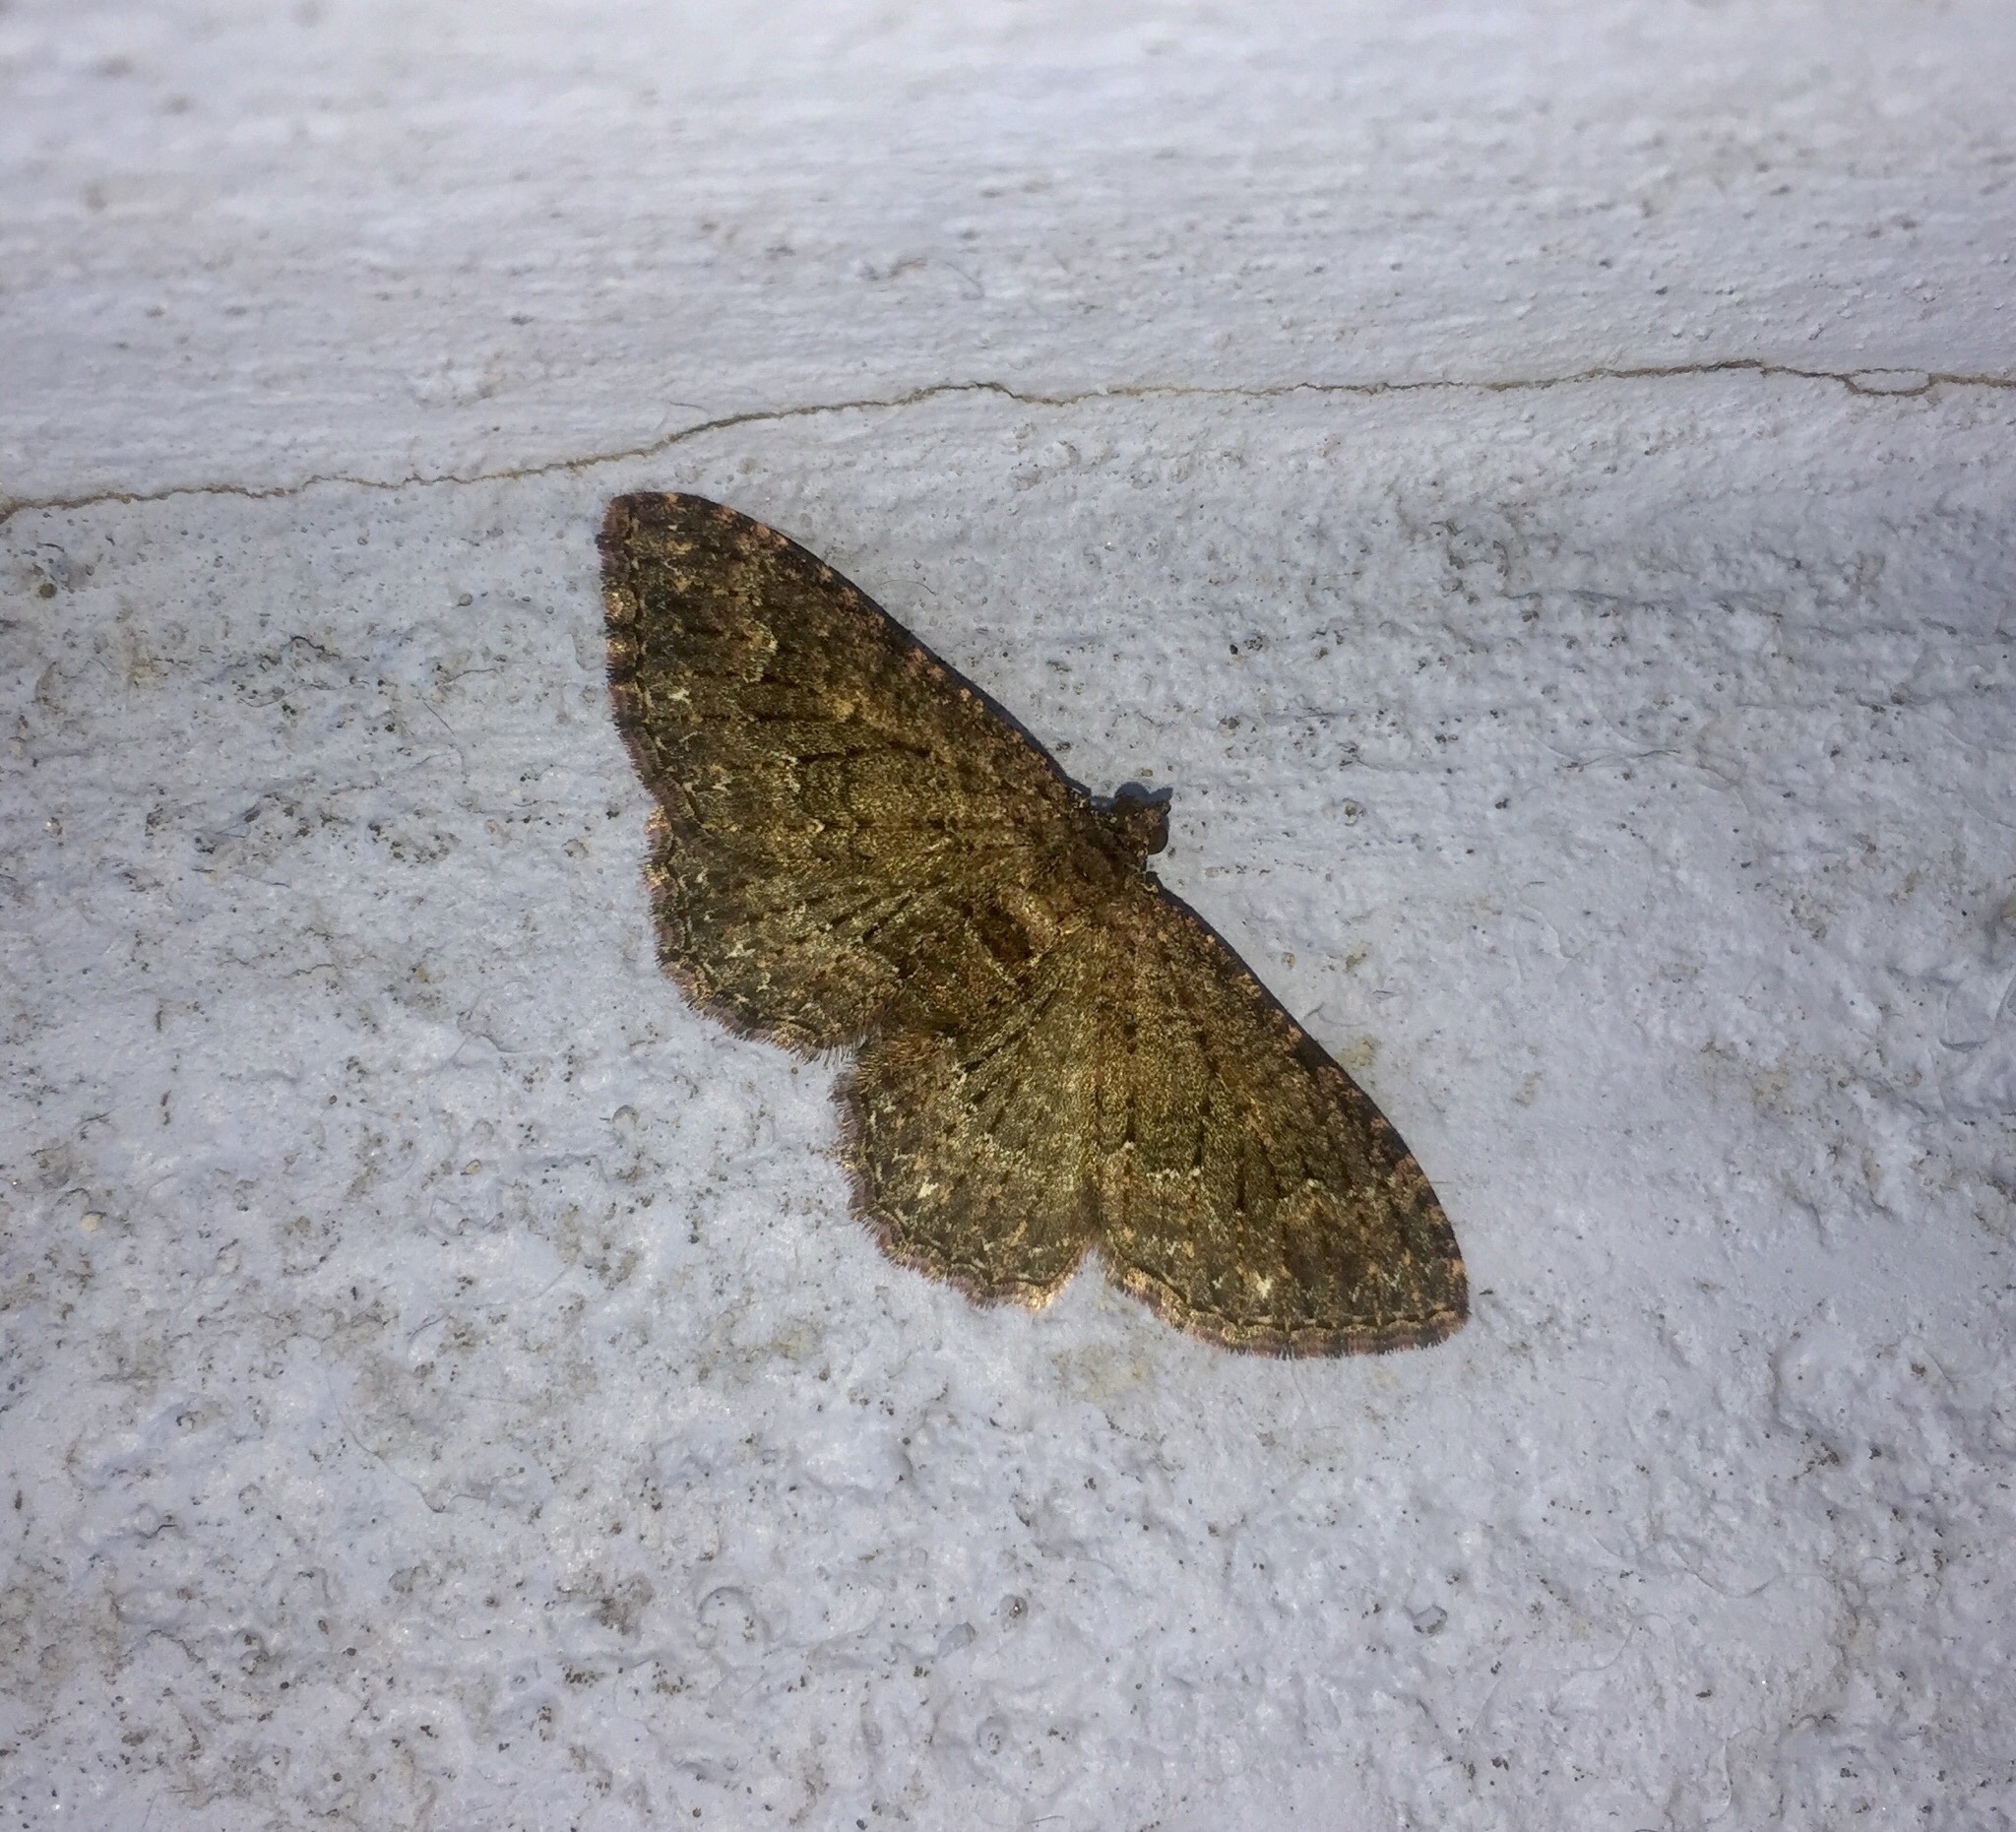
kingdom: Animalia
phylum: Arthropoda
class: Insecta
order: Lepidoptera
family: Geometridae
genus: Disclisioprocta
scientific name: Disclisioprocta stellata
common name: Somber carpet
